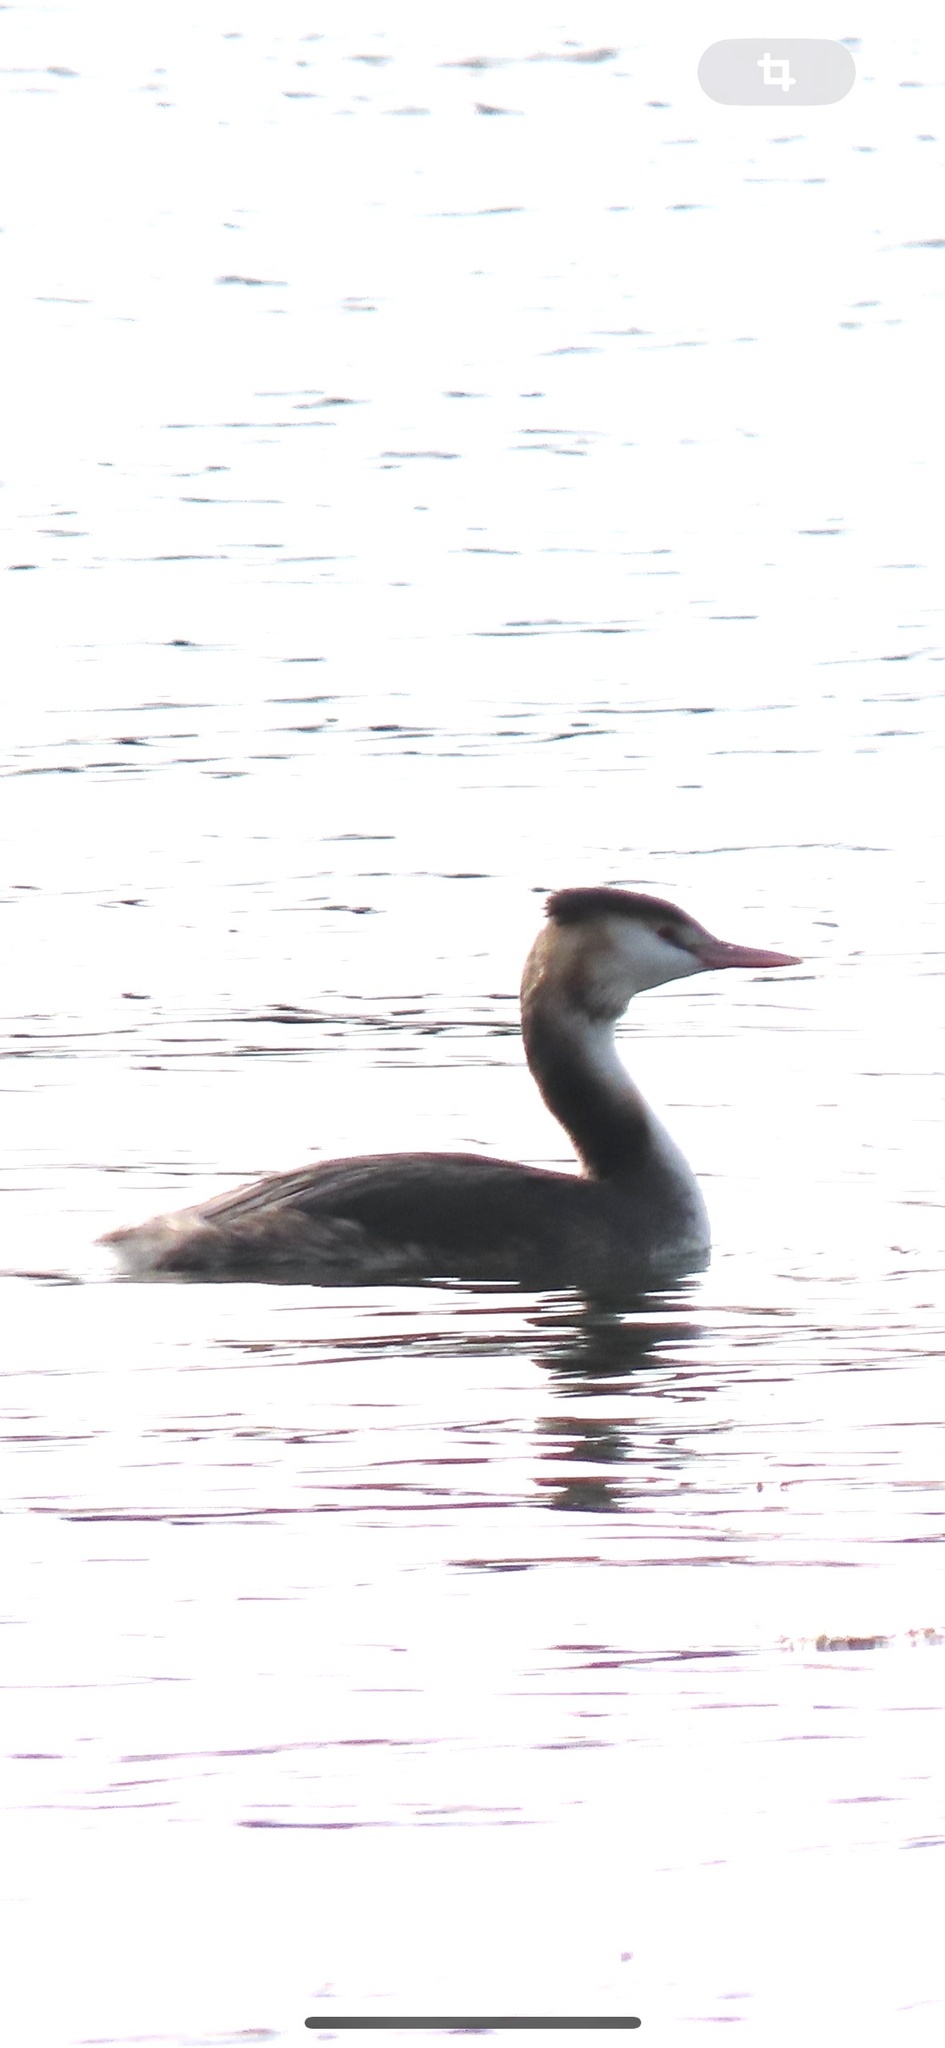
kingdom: Animalia
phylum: Chordata
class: Aves
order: Podicipediformes
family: Podicipedidae
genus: Podiceps
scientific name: Podiceps cristatus
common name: Great crested grebe
